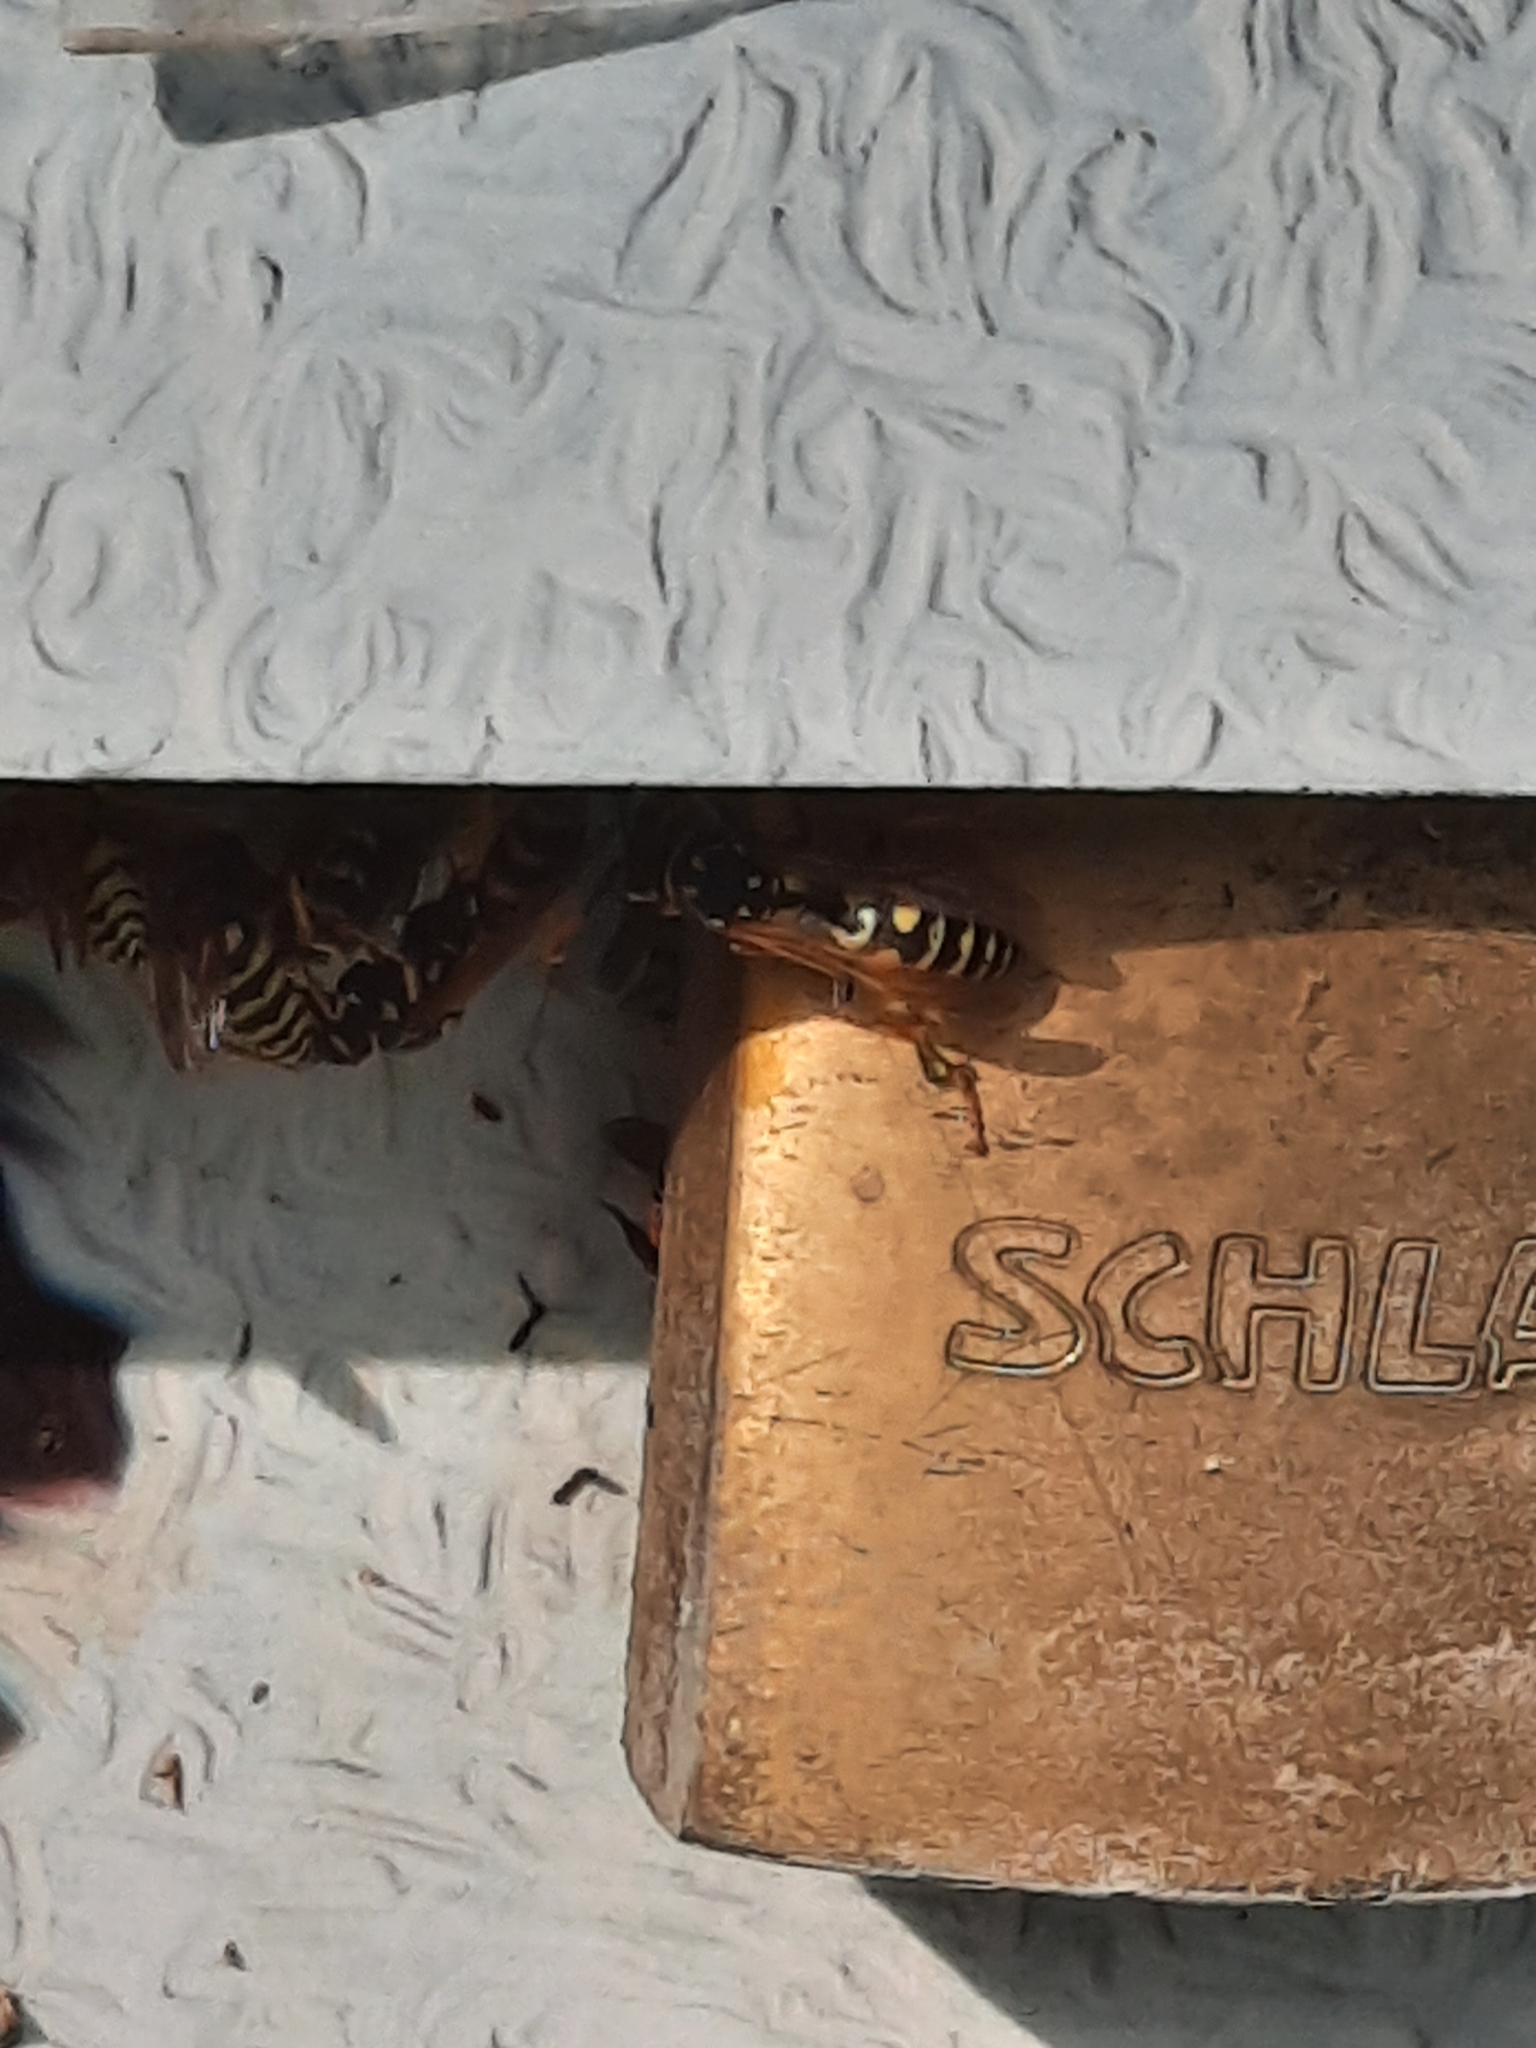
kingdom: Animalia
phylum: Arthropoda
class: Insecta
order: Hymenoptera
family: Eumenidae
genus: Polistes
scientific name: Polistes dominula
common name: Paper wasp
